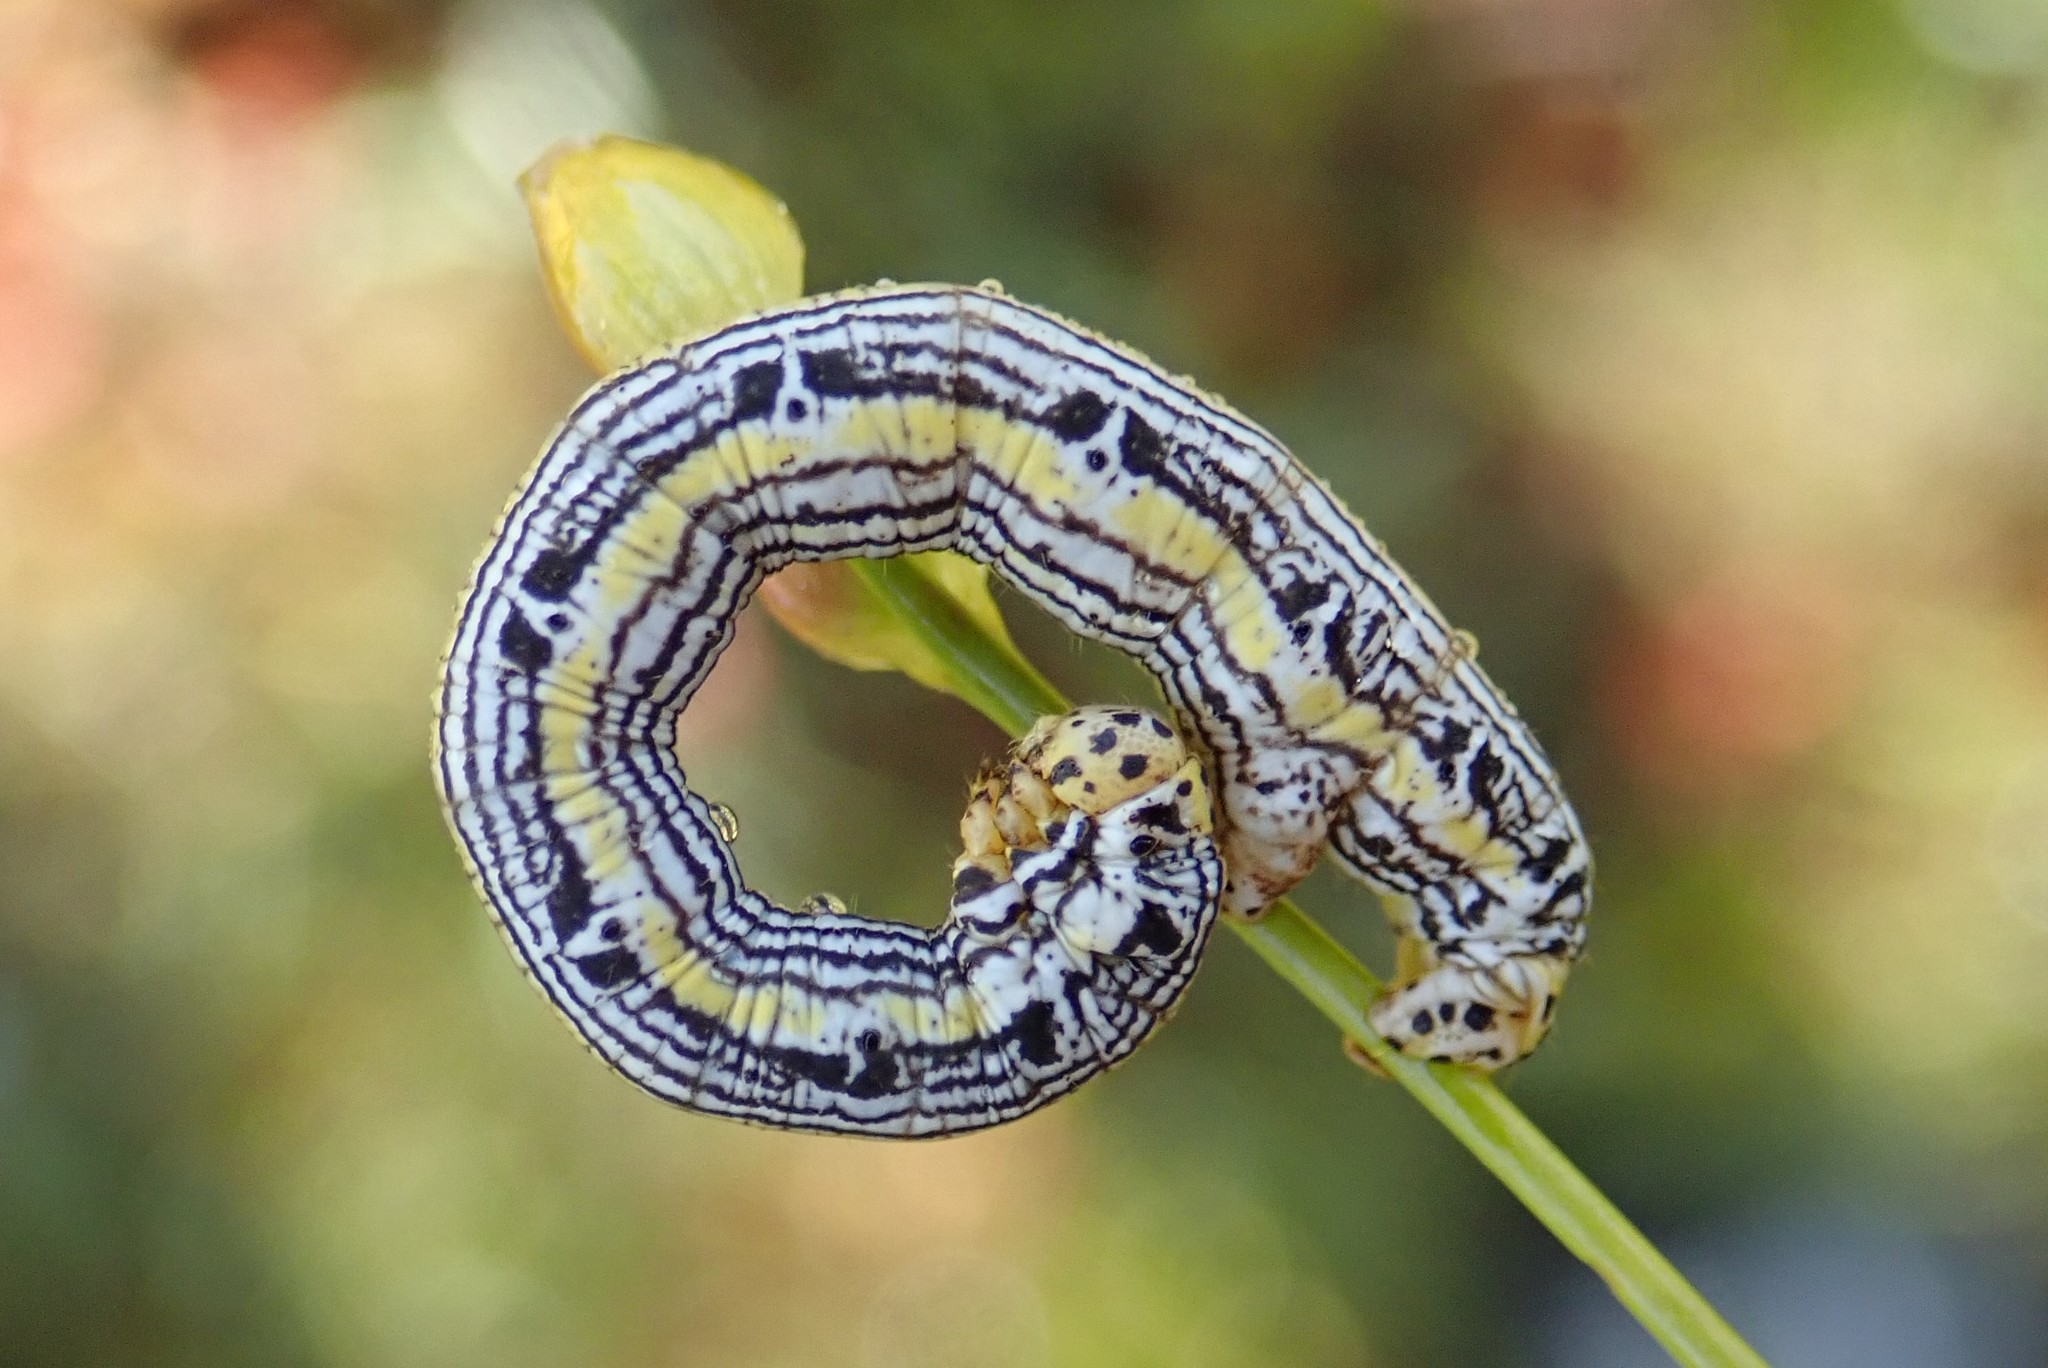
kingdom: Animalia
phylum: Arthropoda
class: Insecta
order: Lepidoptera
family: Geometridae
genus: Cingilia
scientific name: Cingilia catenaria
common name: Chain-dotted geometer
